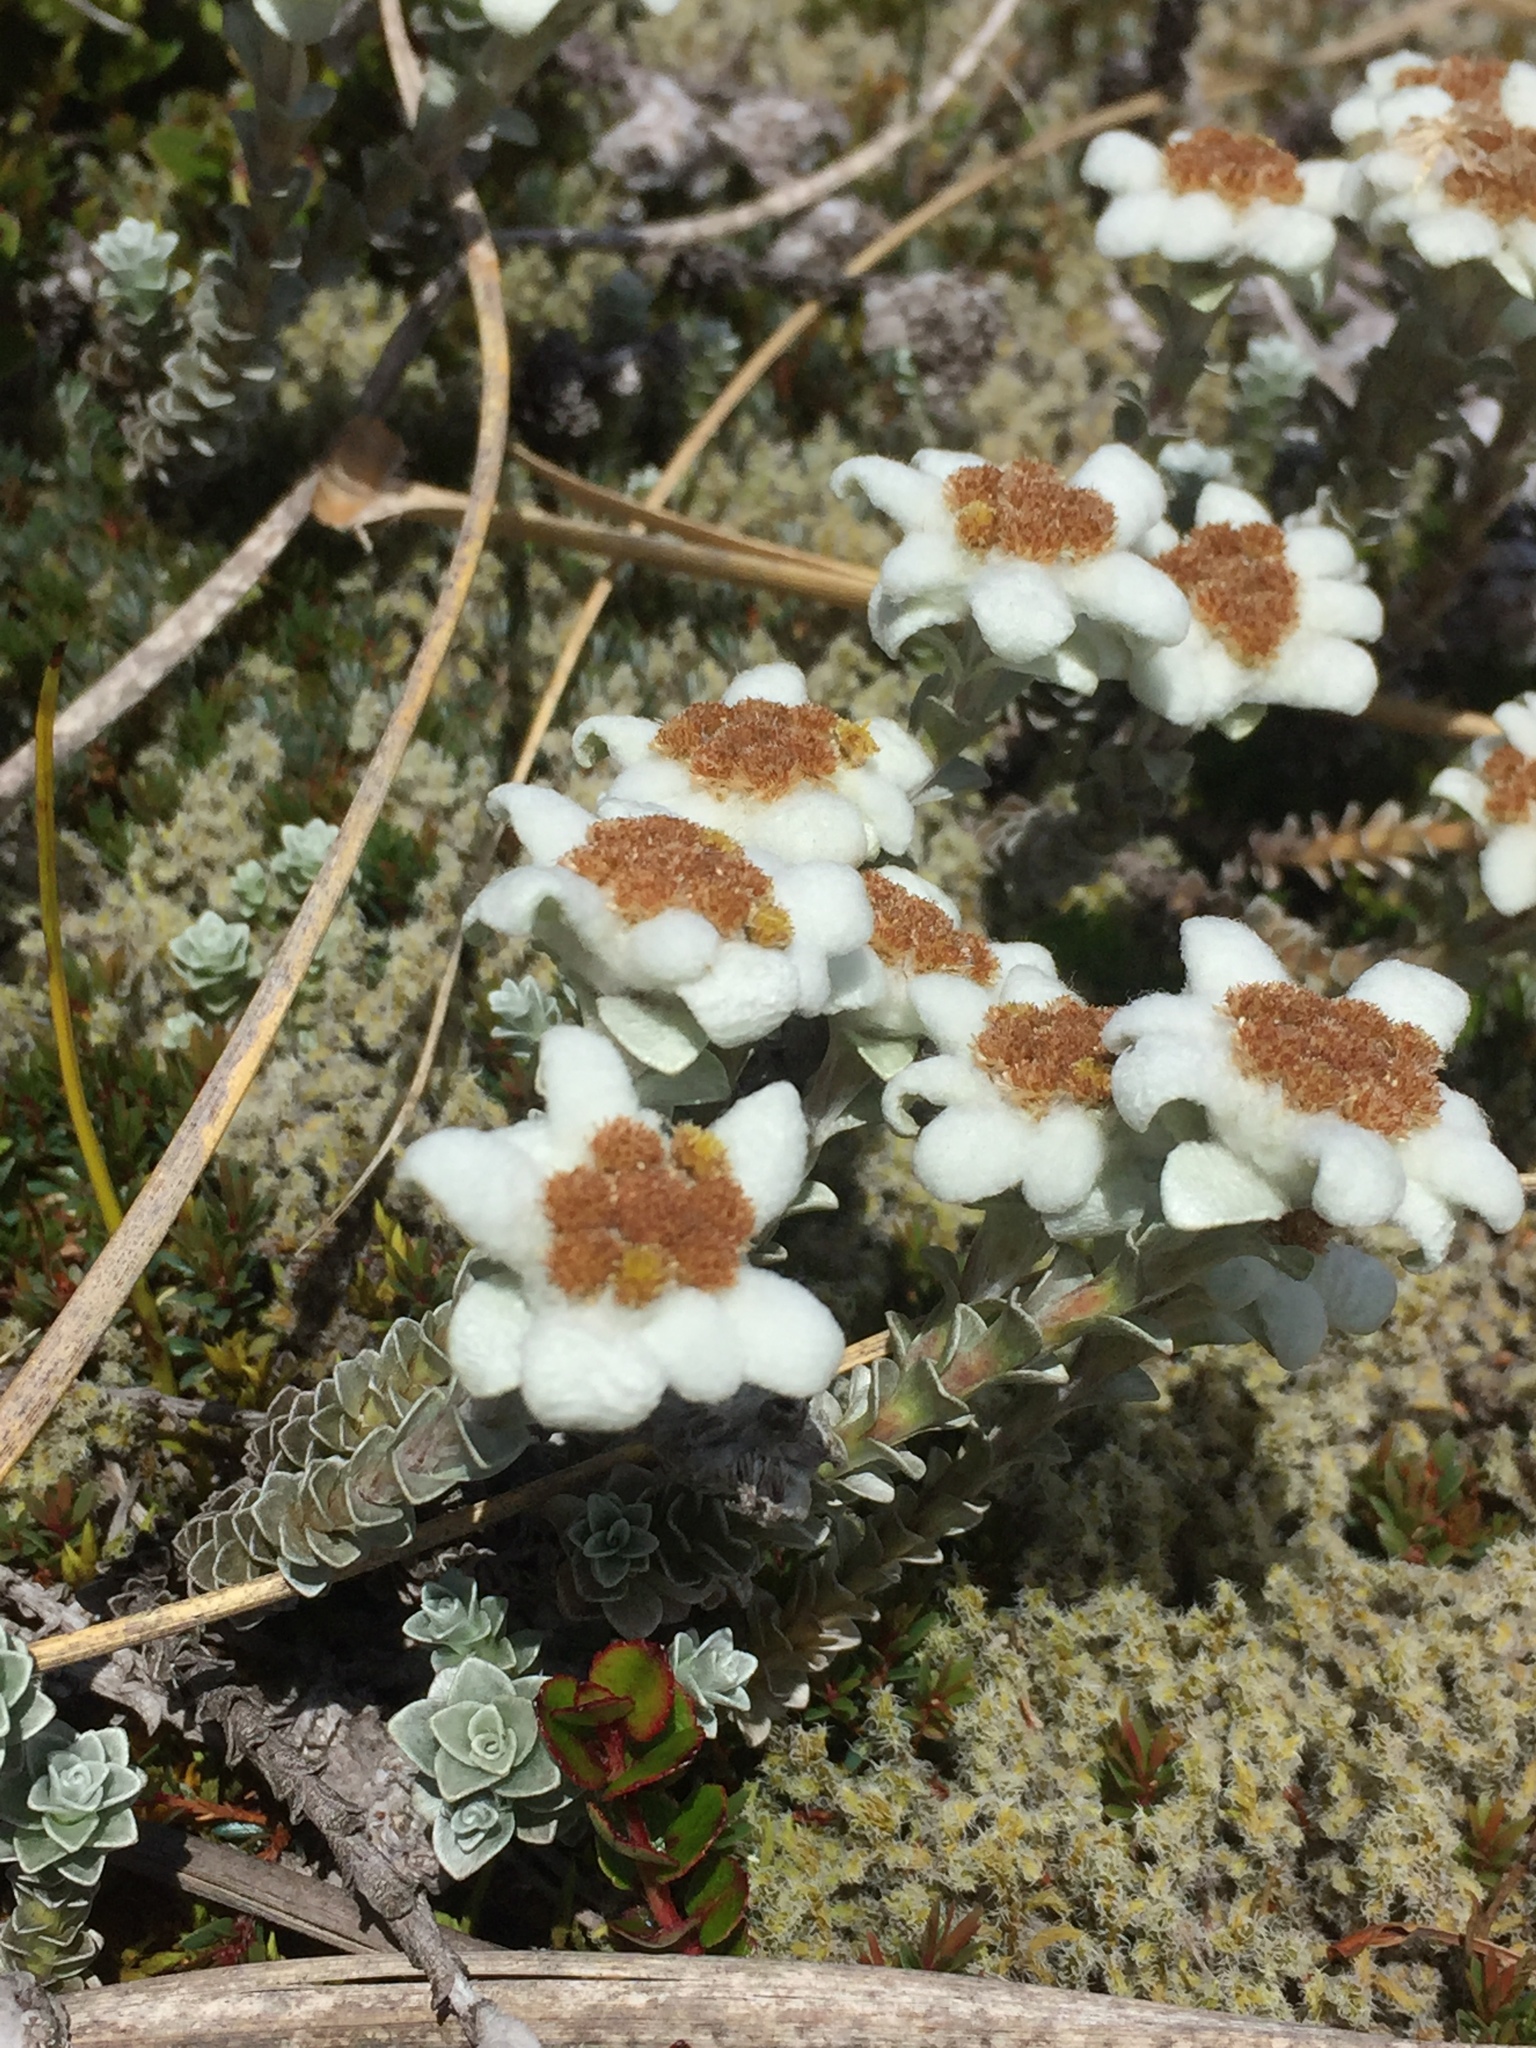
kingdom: Plantae
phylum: Tracheophyta
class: Magnoliopsida
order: Asterales
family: Asteraceae
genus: Leucogenes
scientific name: Leucogenes grandiceps
